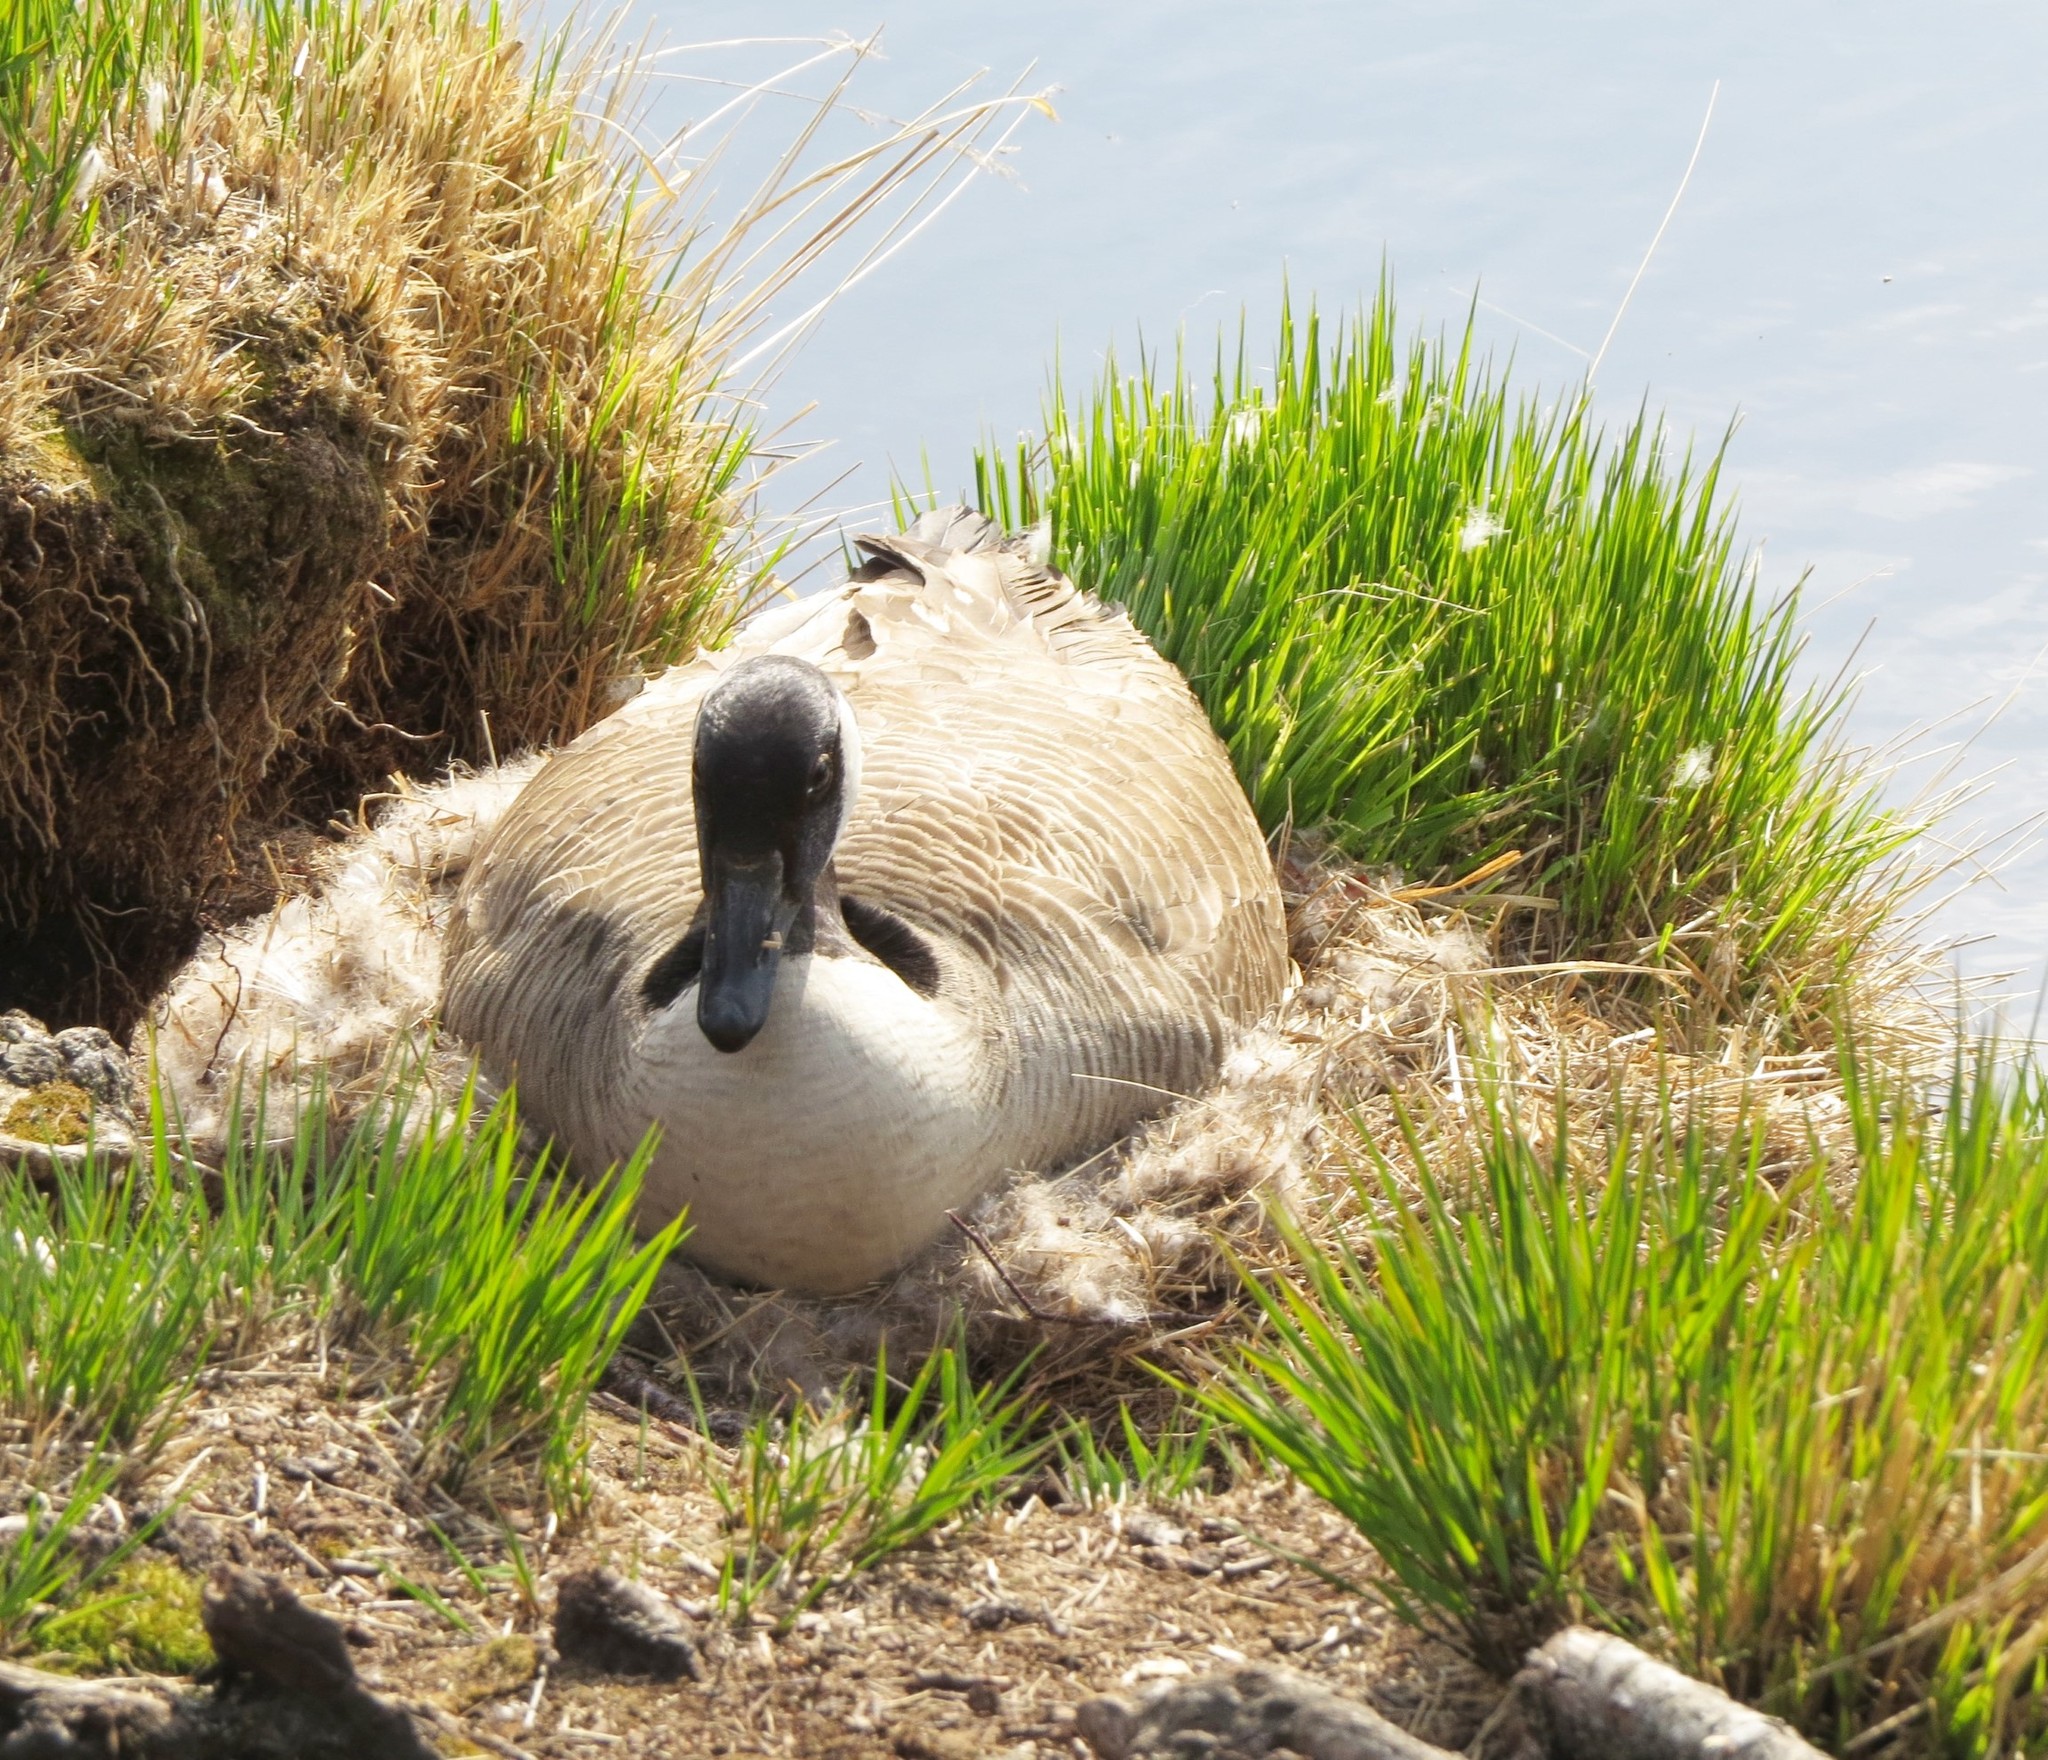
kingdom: Animalia
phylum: Chordata
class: Aves
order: Anseriformes
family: Anatidae
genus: Branta
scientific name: Branta canadensis
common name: Canada goose
